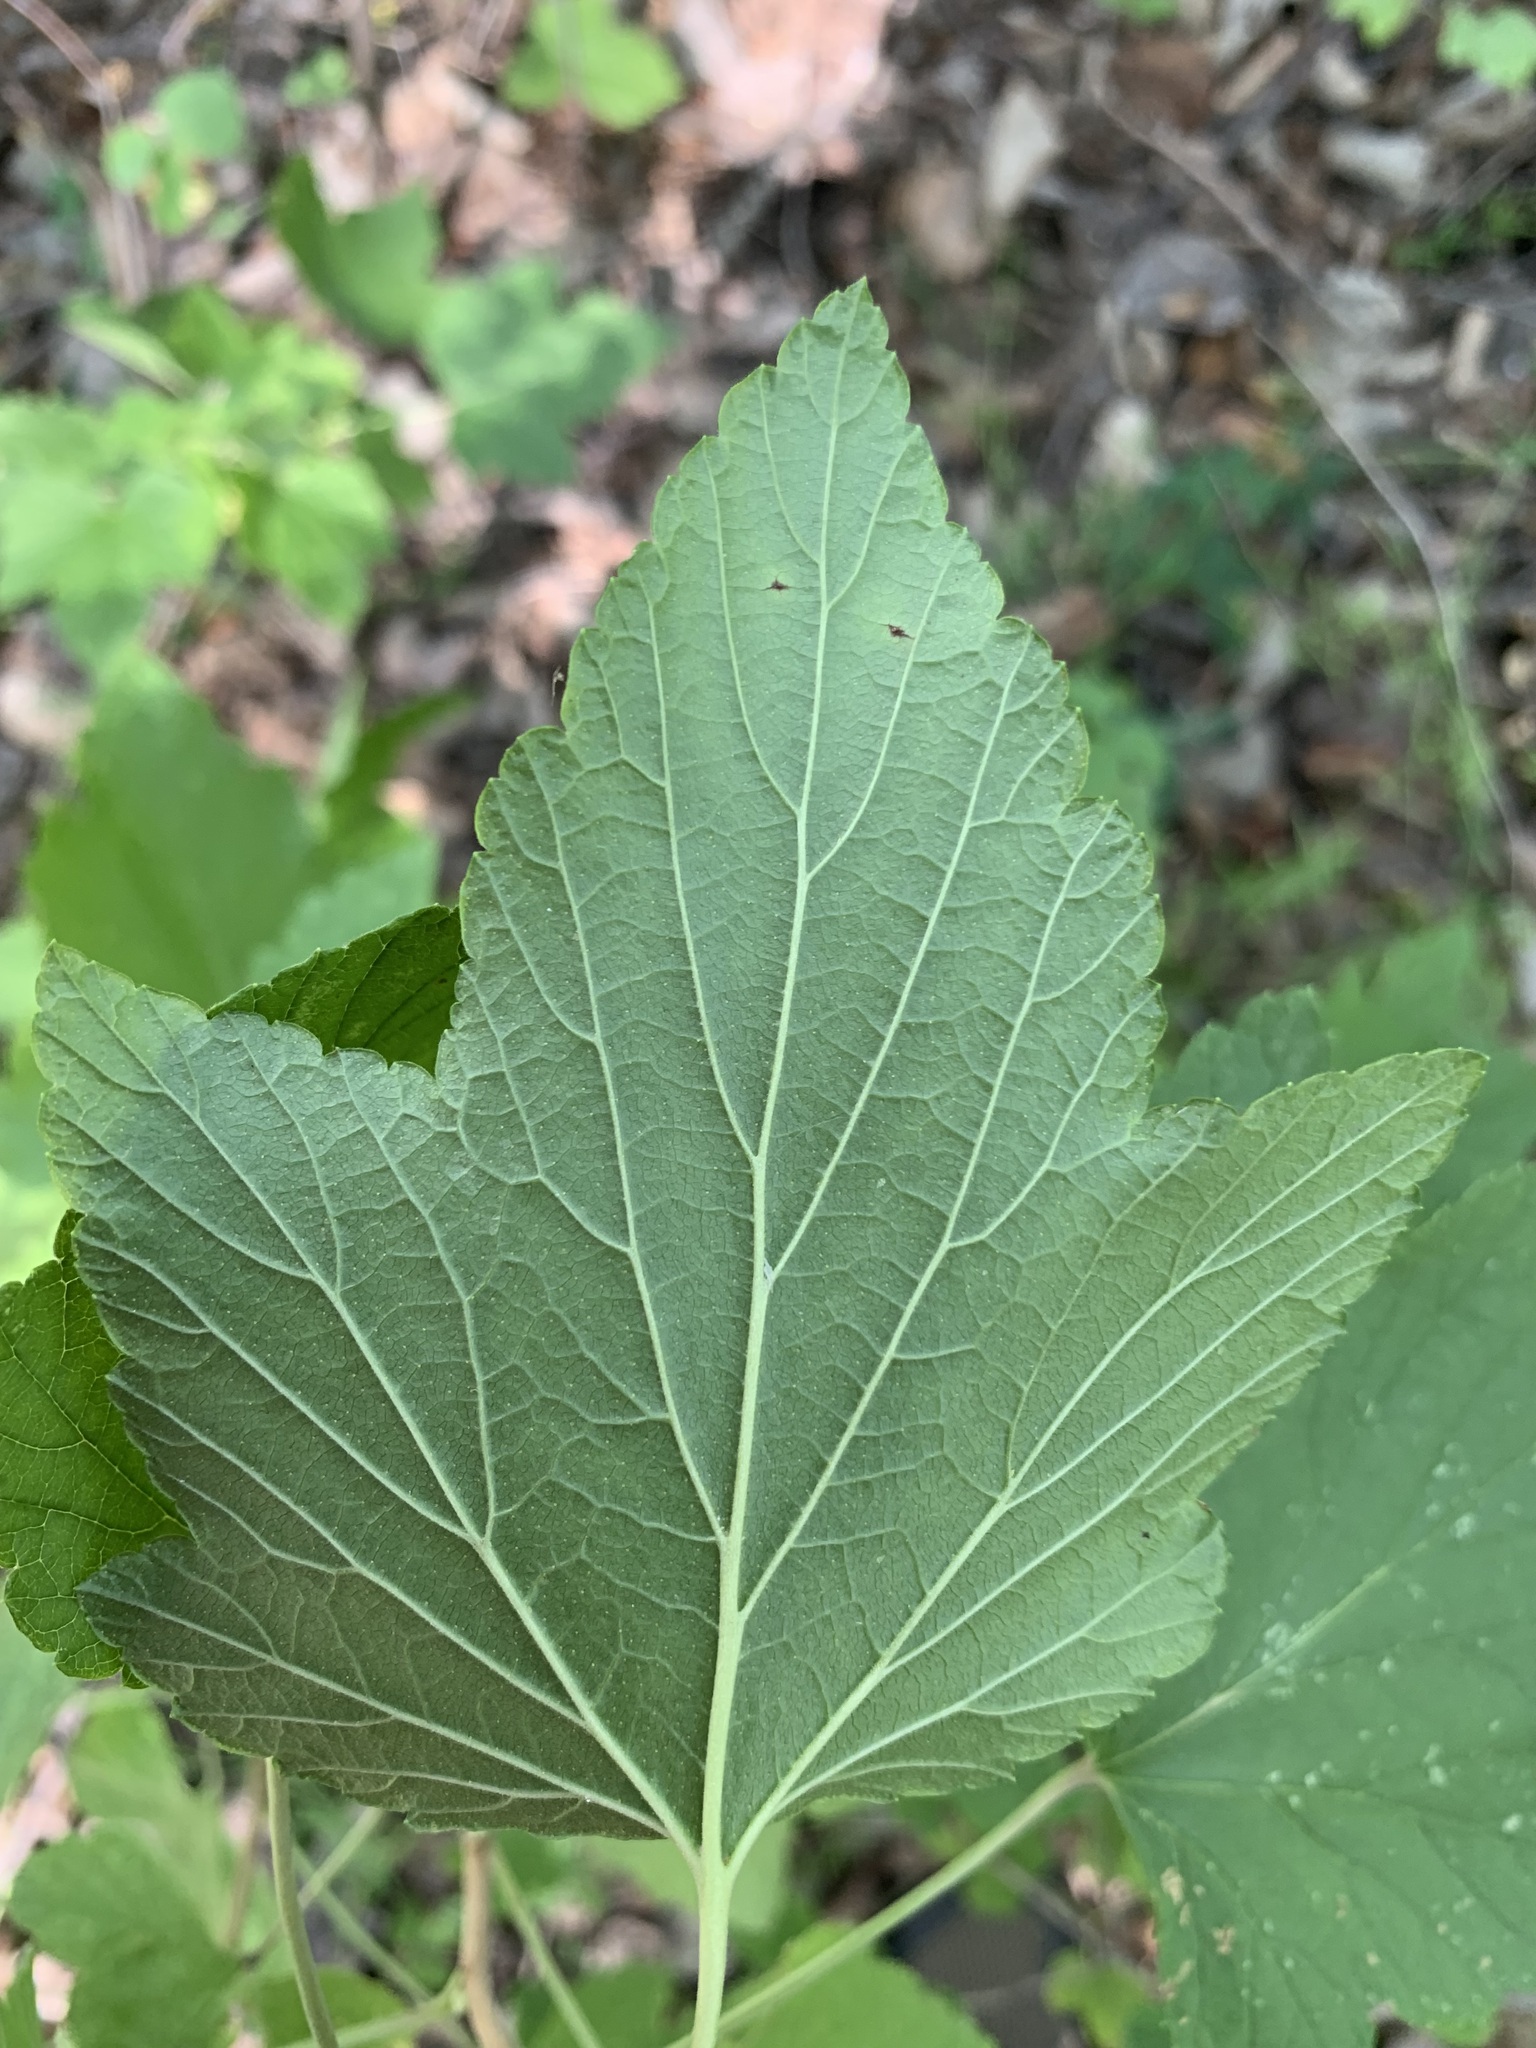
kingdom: Plantae
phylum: Tracheophyta
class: Magnoliopsida
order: Saxifragales
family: Grossulariaceae
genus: Ribes
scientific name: Ribes nigrum
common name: Black currant
